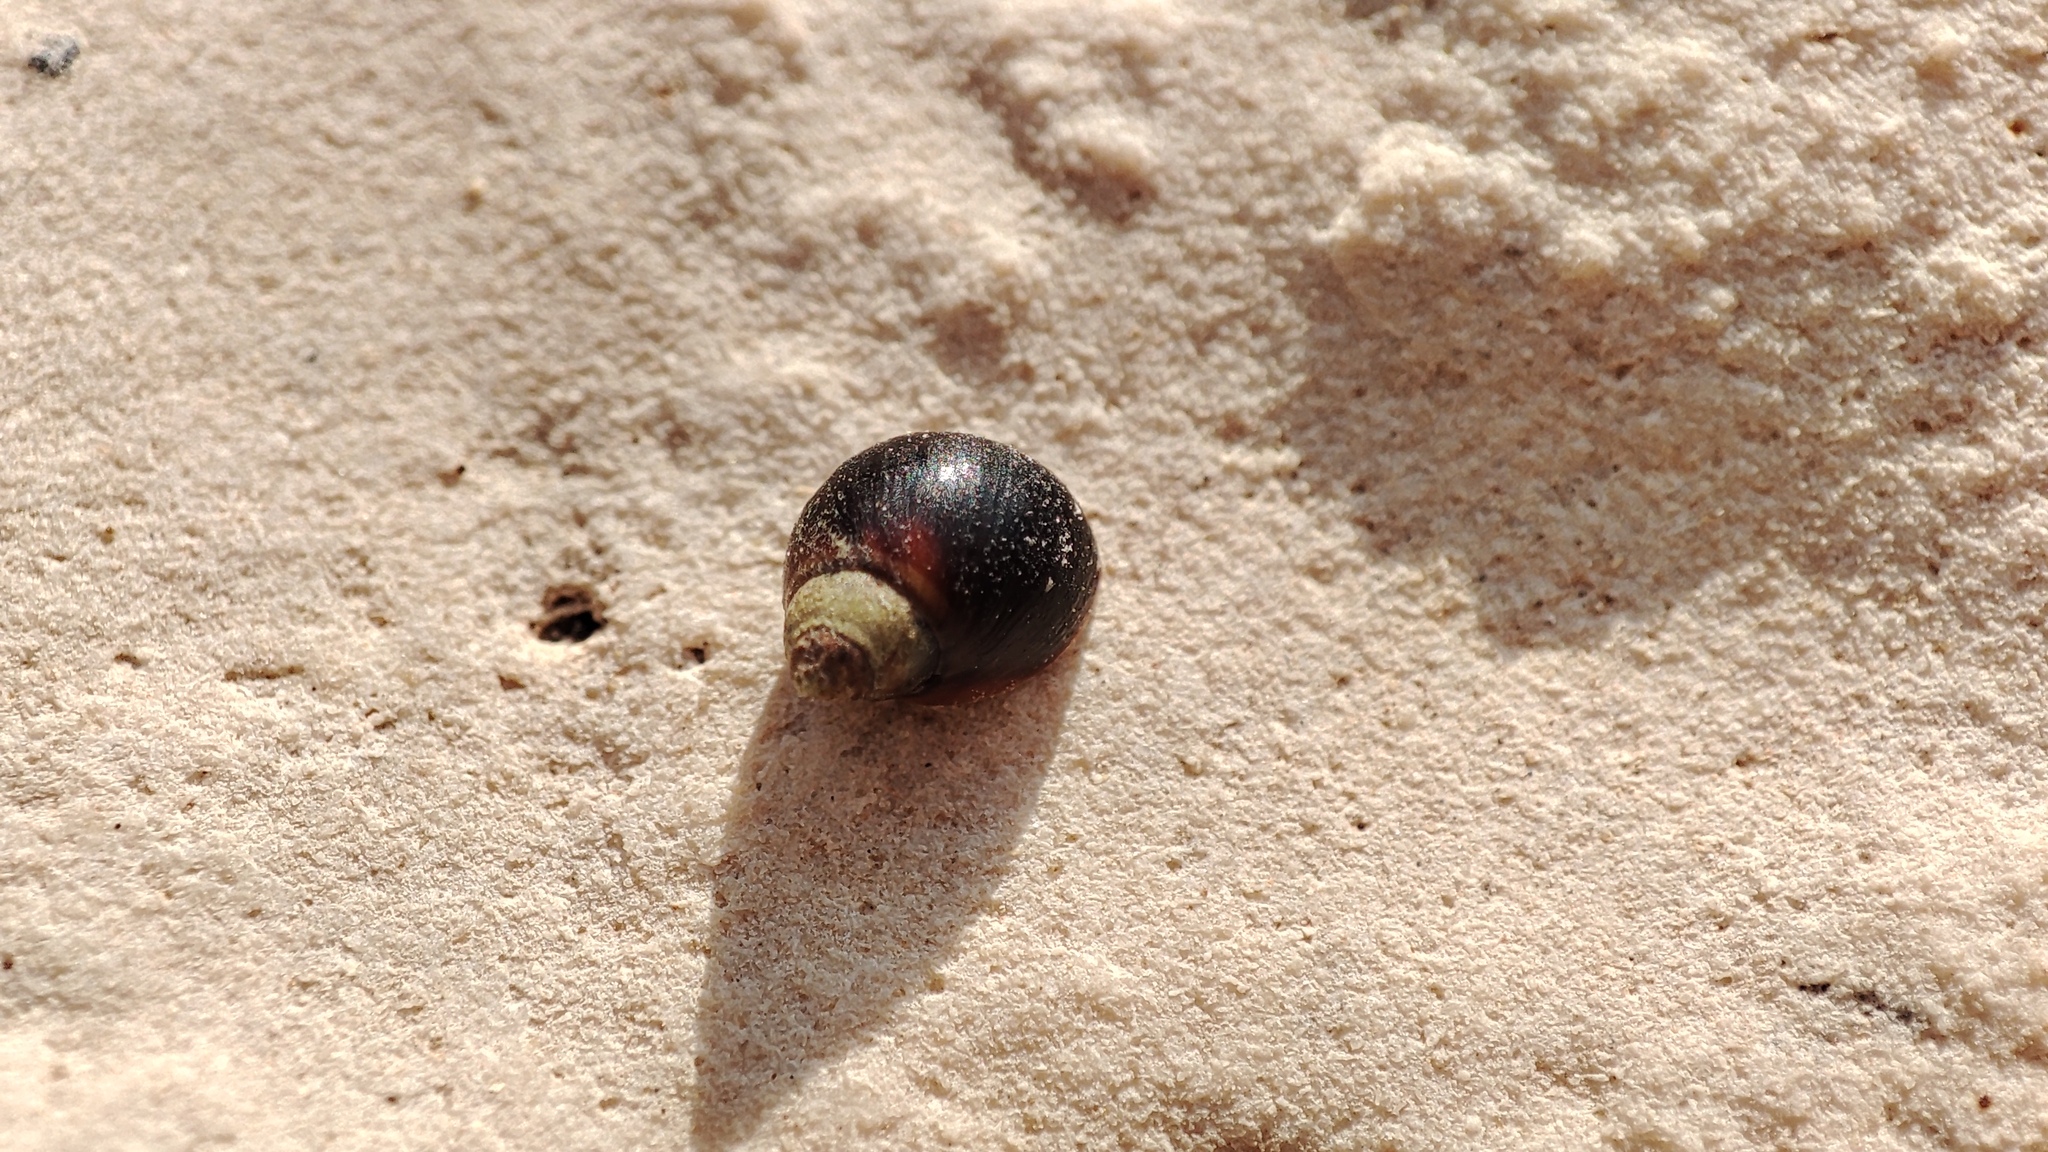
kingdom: Animalia
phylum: Mollusca
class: Gastropoda
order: Littorinimorpha
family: Littorinidae
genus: Melarhaphe
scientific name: Melarhaphe neritoides
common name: Small periwinkle
